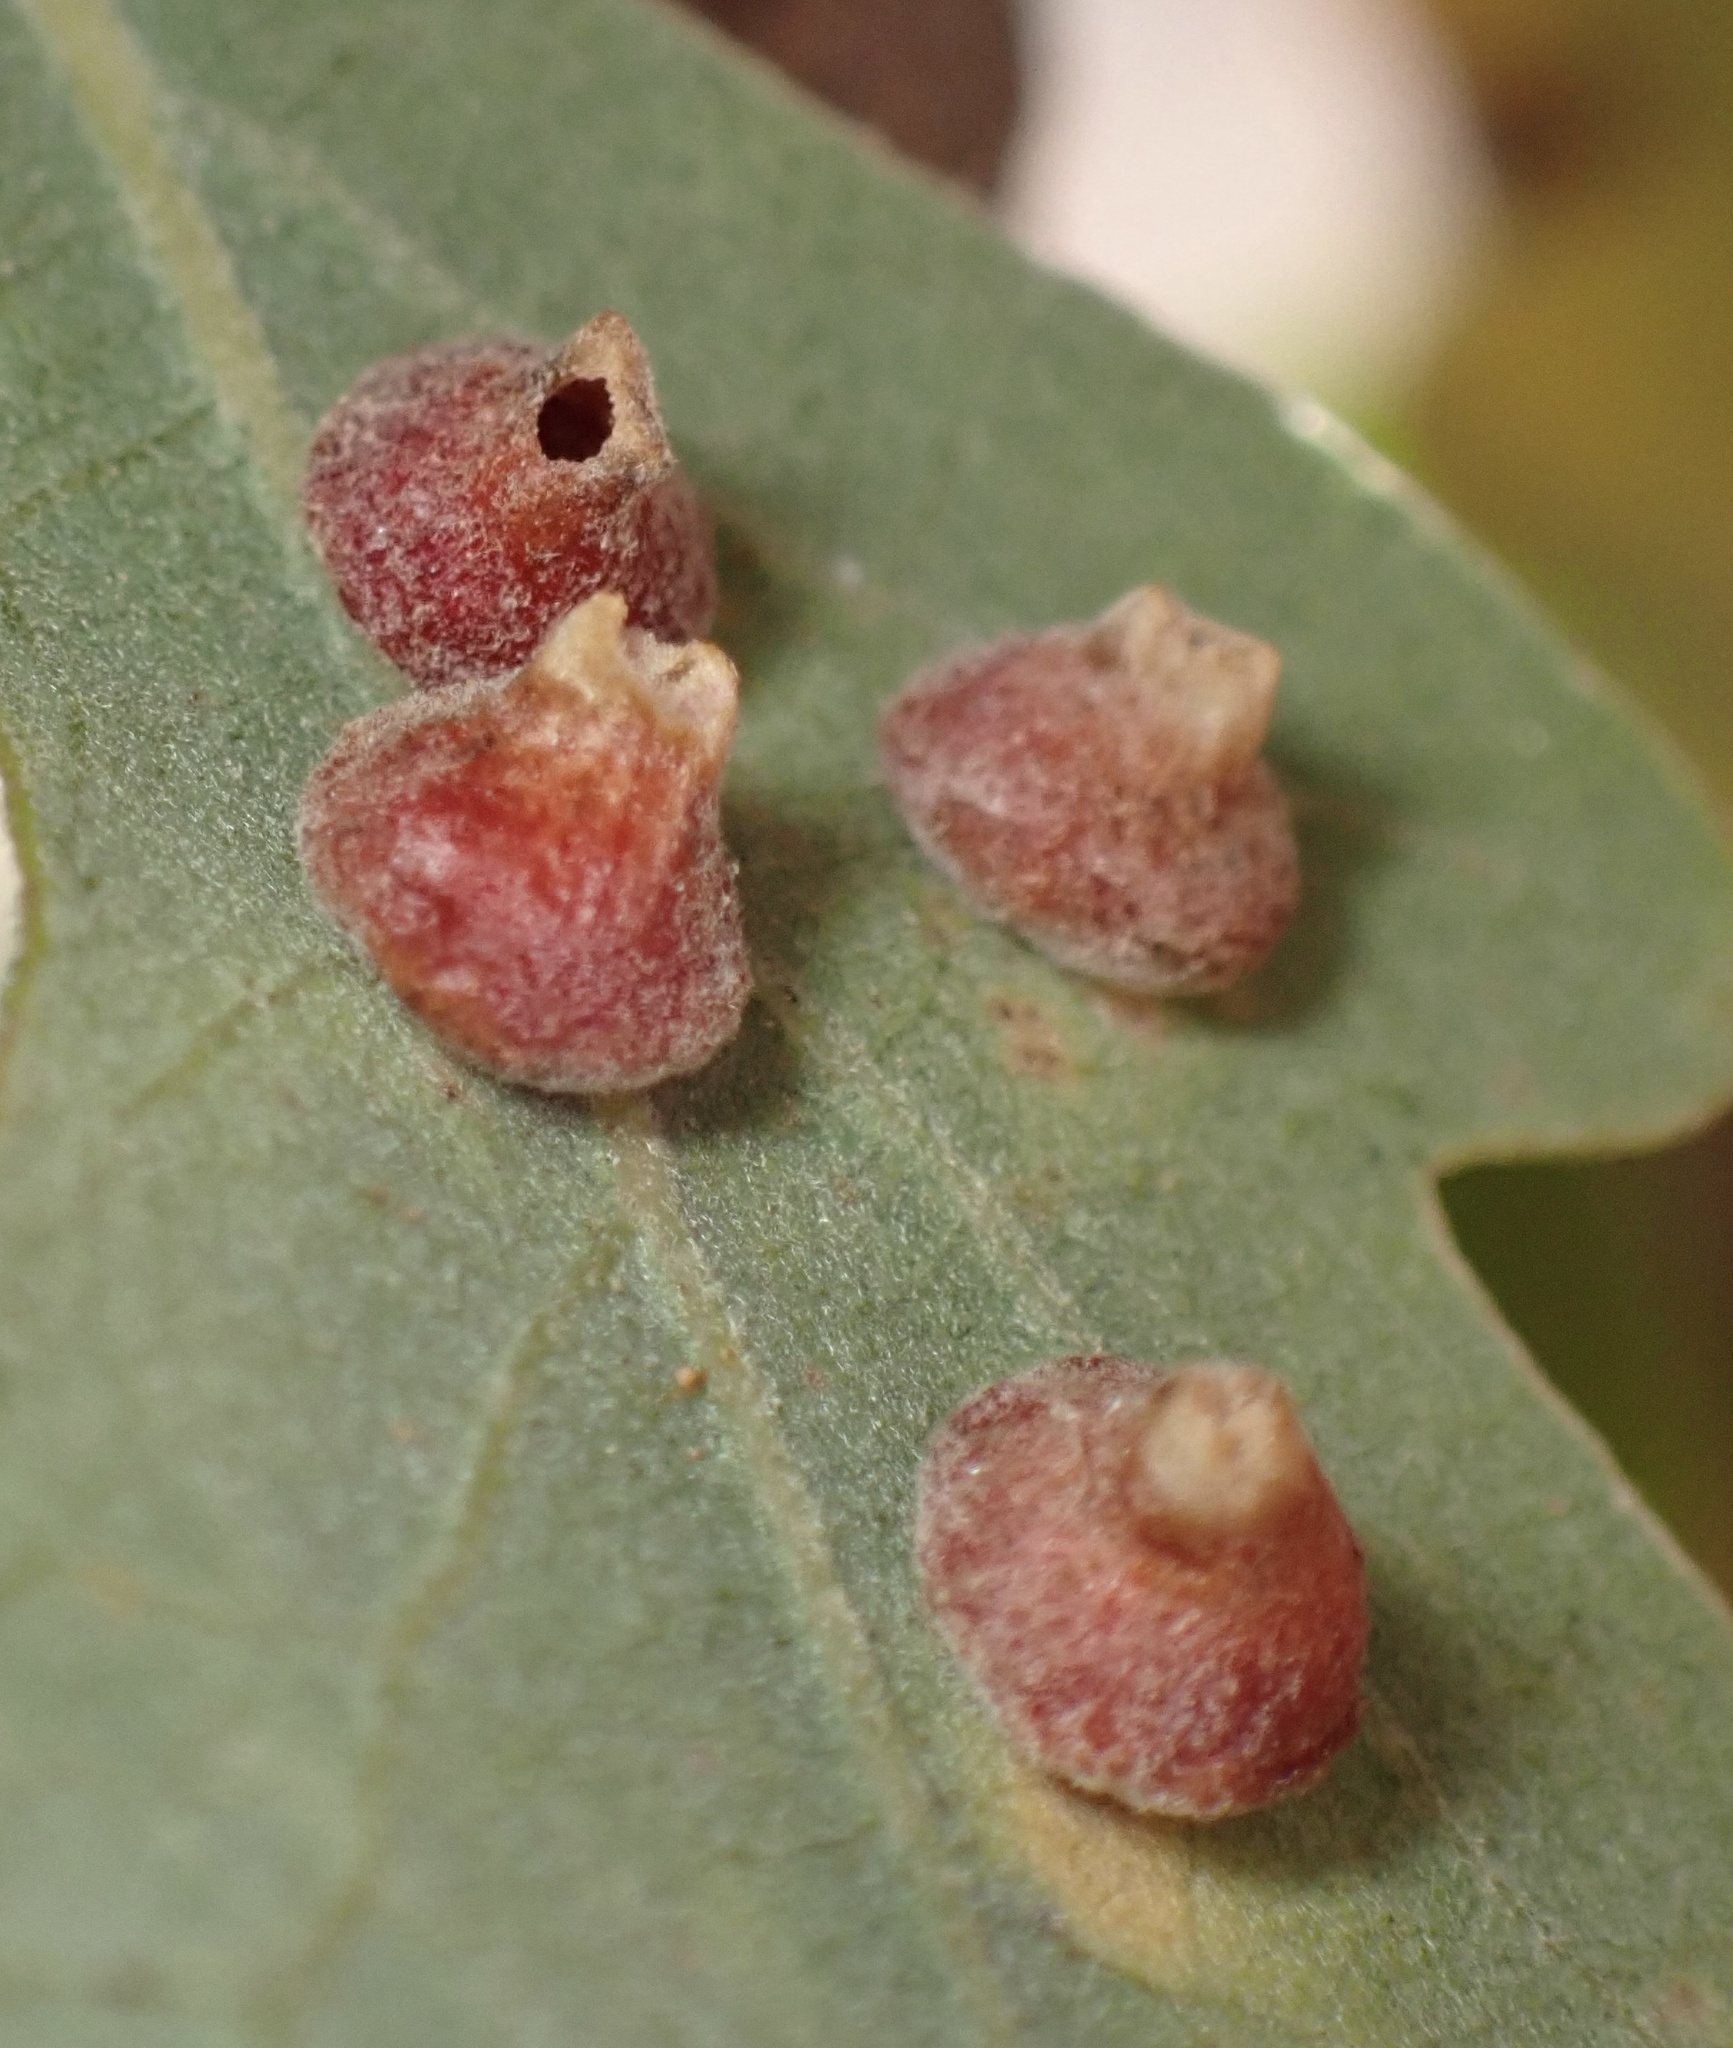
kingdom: Animalia
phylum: Arthropoda
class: Insecta
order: Hymenoptera
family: Cynipidae
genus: Andricus
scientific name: Andricus
